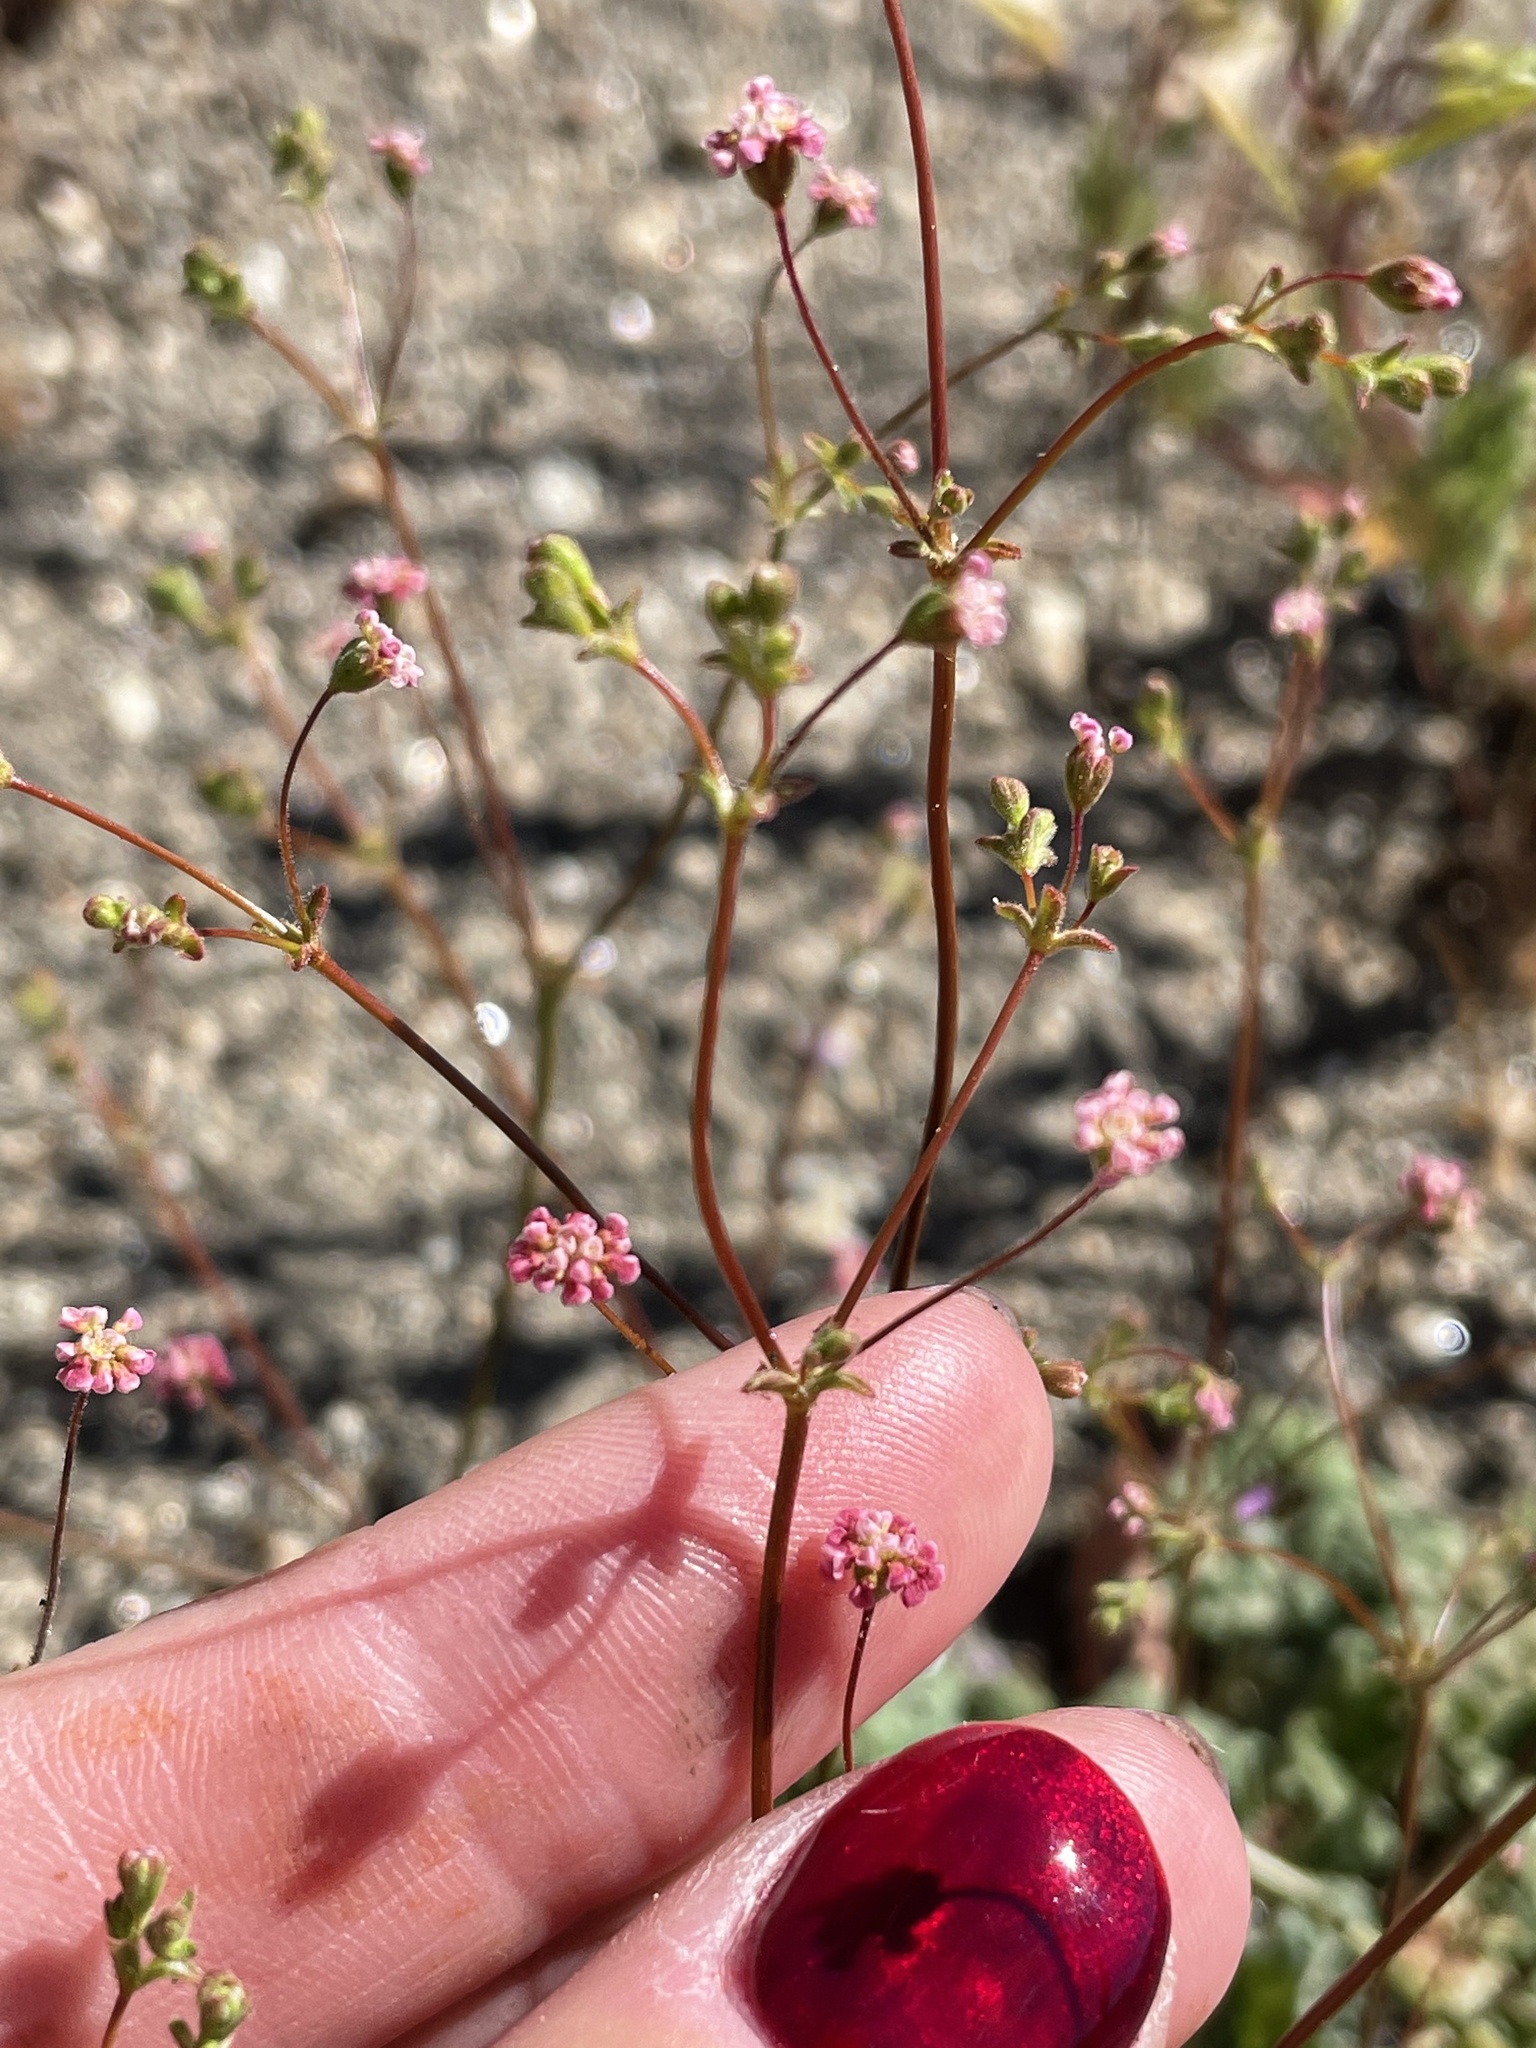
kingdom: Plantae
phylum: Tracheophyta
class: Magnoliopsida
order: Caryophyllales
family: Polygonaceae
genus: Eriogonum
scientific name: Eriogonum thurberi
